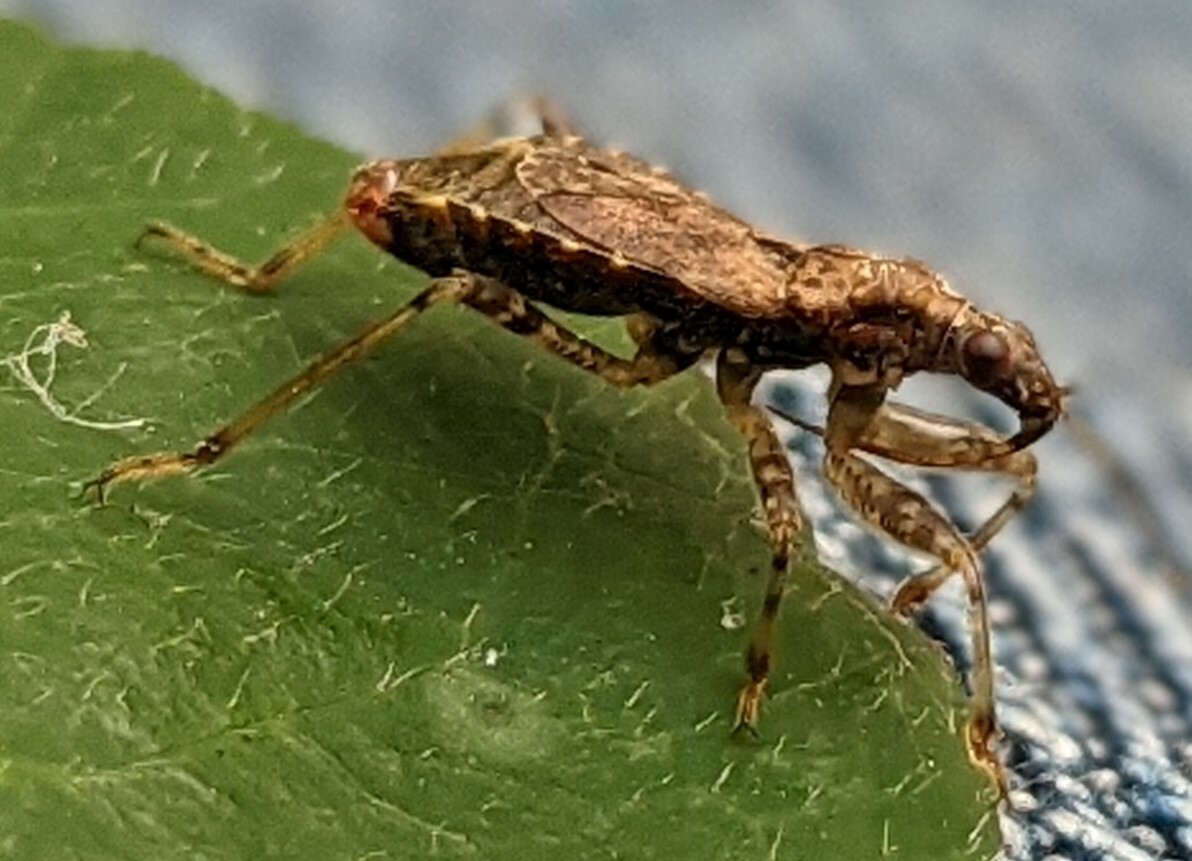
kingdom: Animalia
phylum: Arthropoda
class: Insecta
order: Hemiptera
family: Nabidae
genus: Himacerus
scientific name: Himacerus mirmicoides
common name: Ant damsel bug
